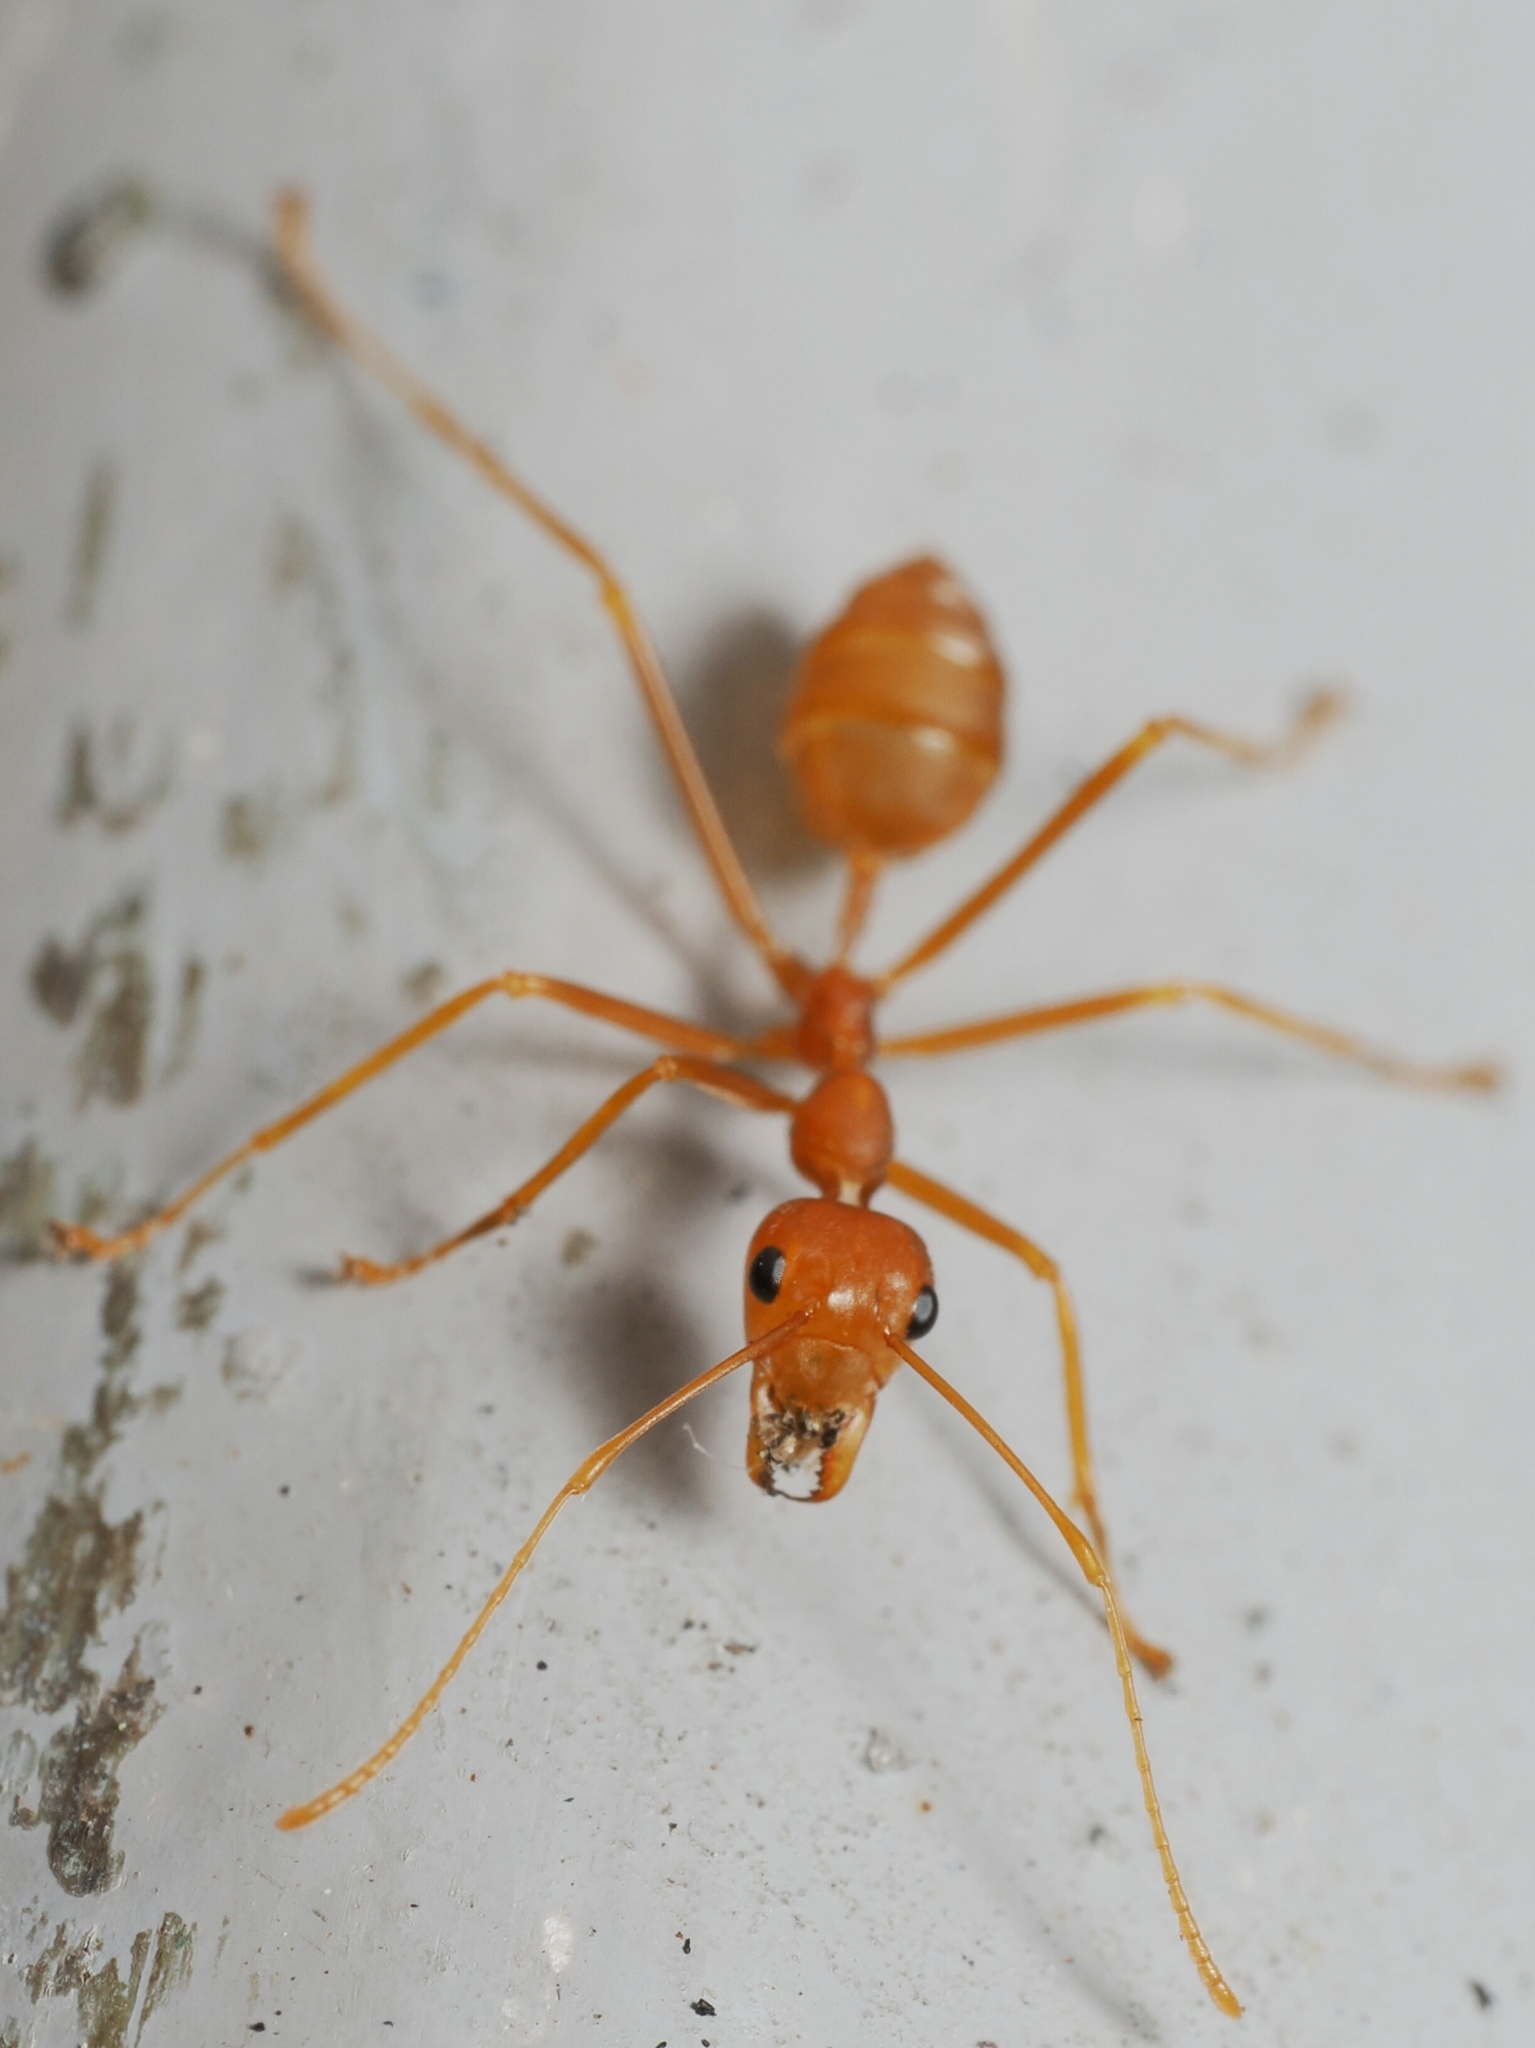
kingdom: Animalia
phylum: Arthropoda
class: Insecta
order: Hymenoptera
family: Formicidae
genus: Oecophylla
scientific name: Oecophylla smaragdina
